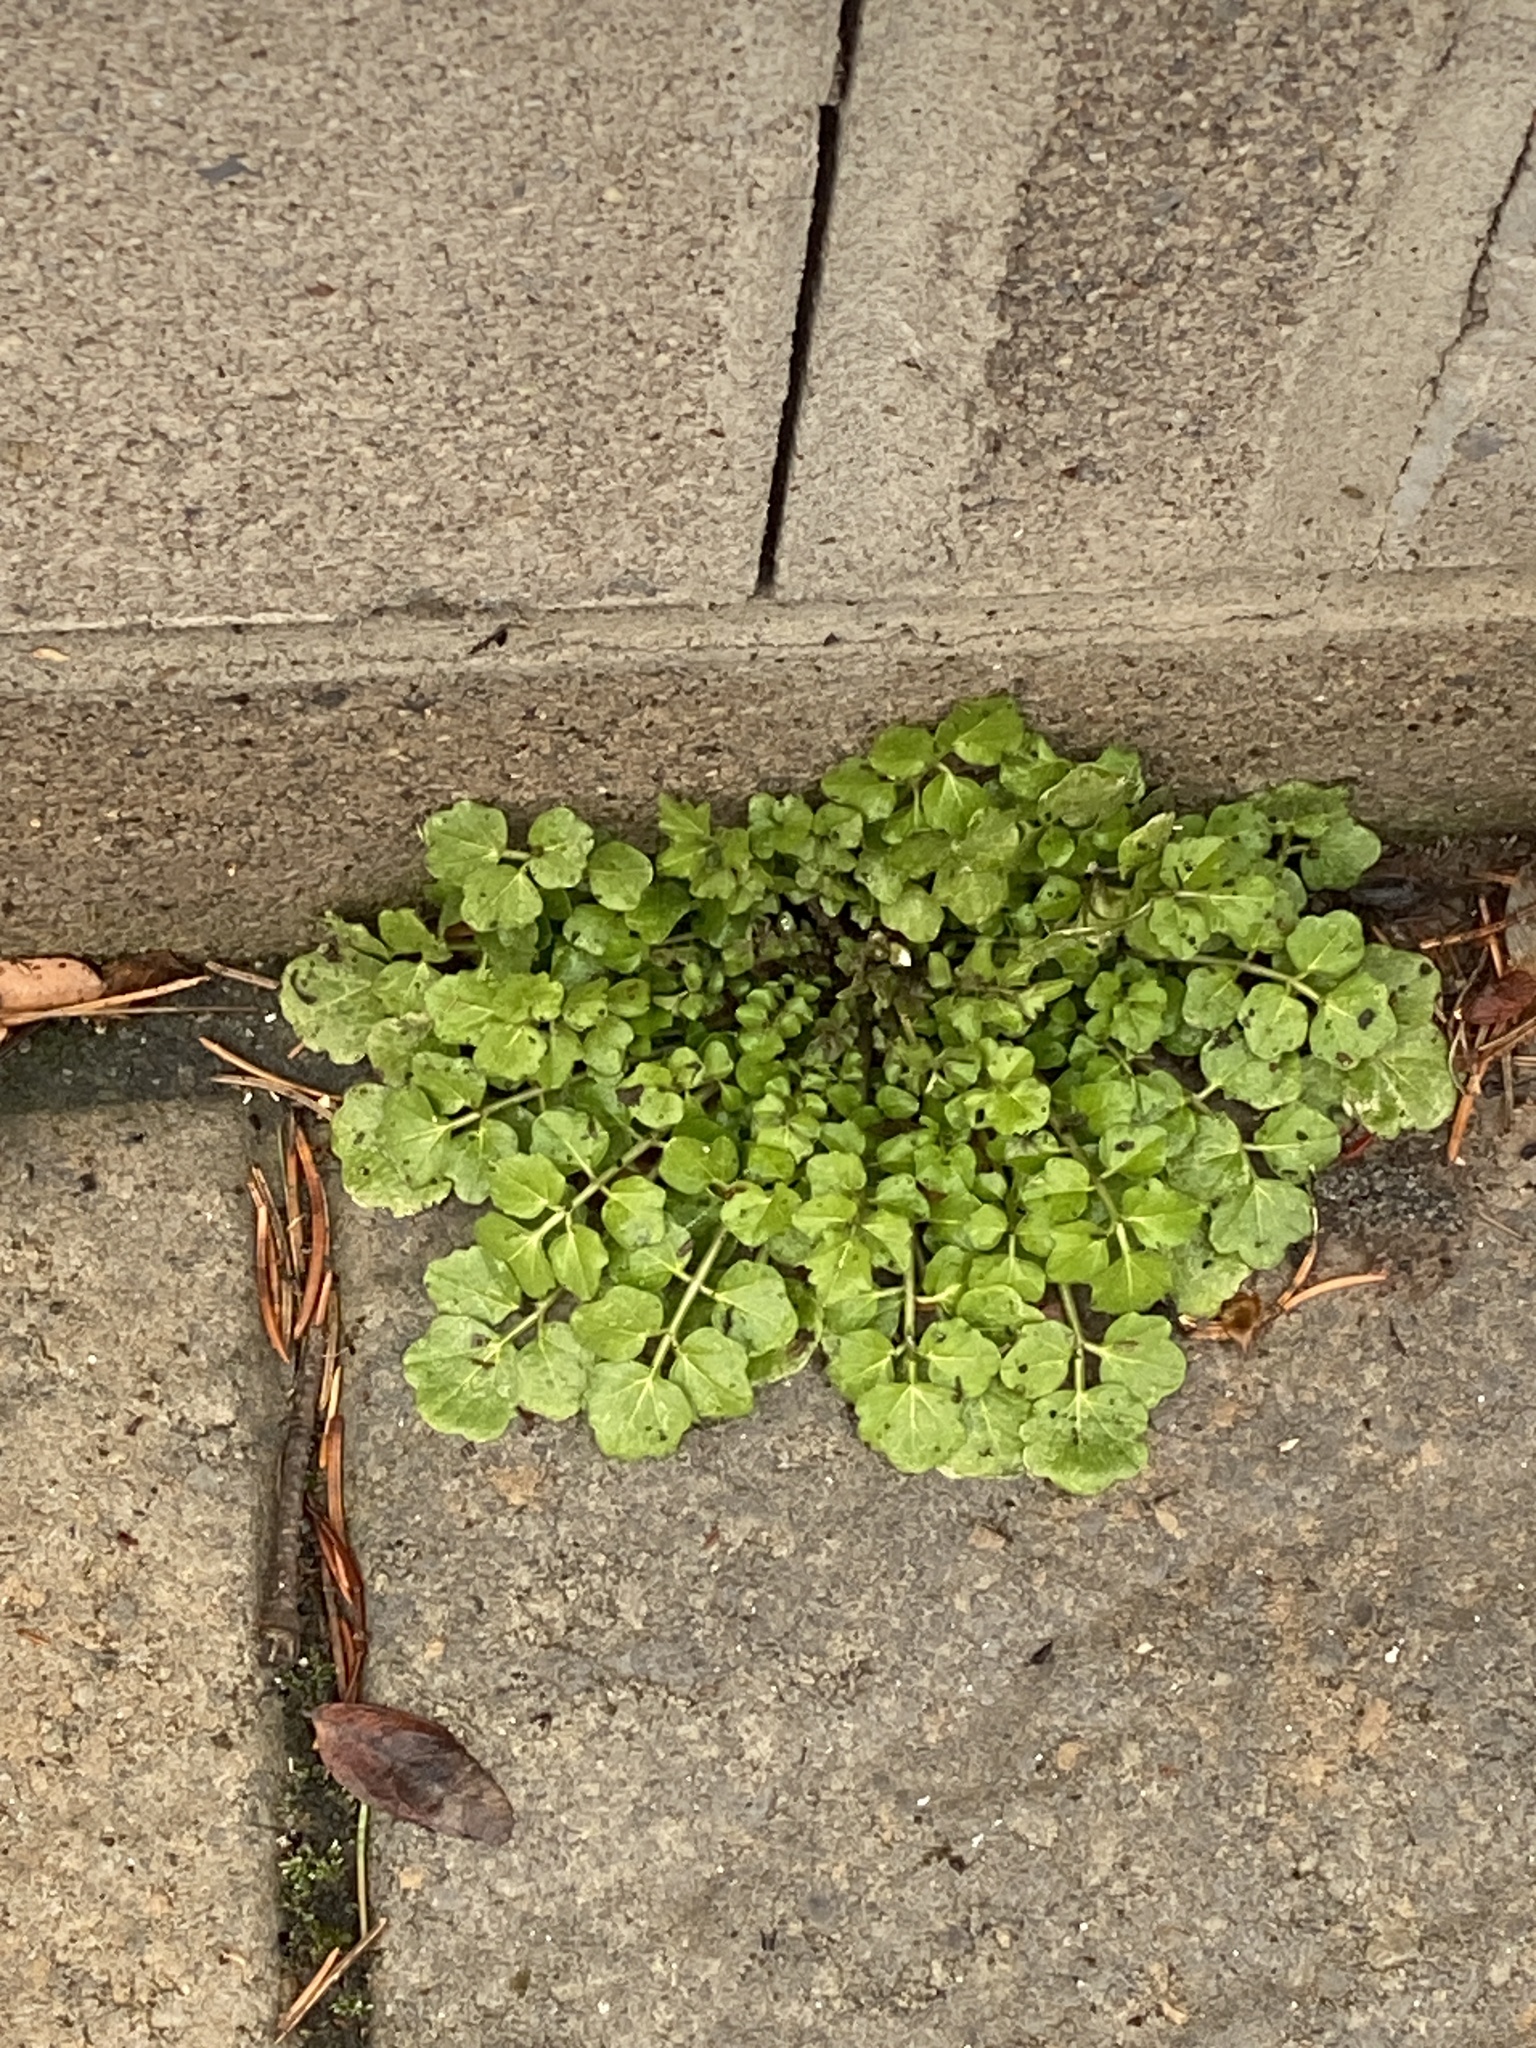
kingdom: Plantae
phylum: Tracheophyta
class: Magnoliopsida
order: Brassicales
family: Brassicaceae
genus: Cardamine
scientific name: Cardamine hirsuta
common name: Hairy bittercress
